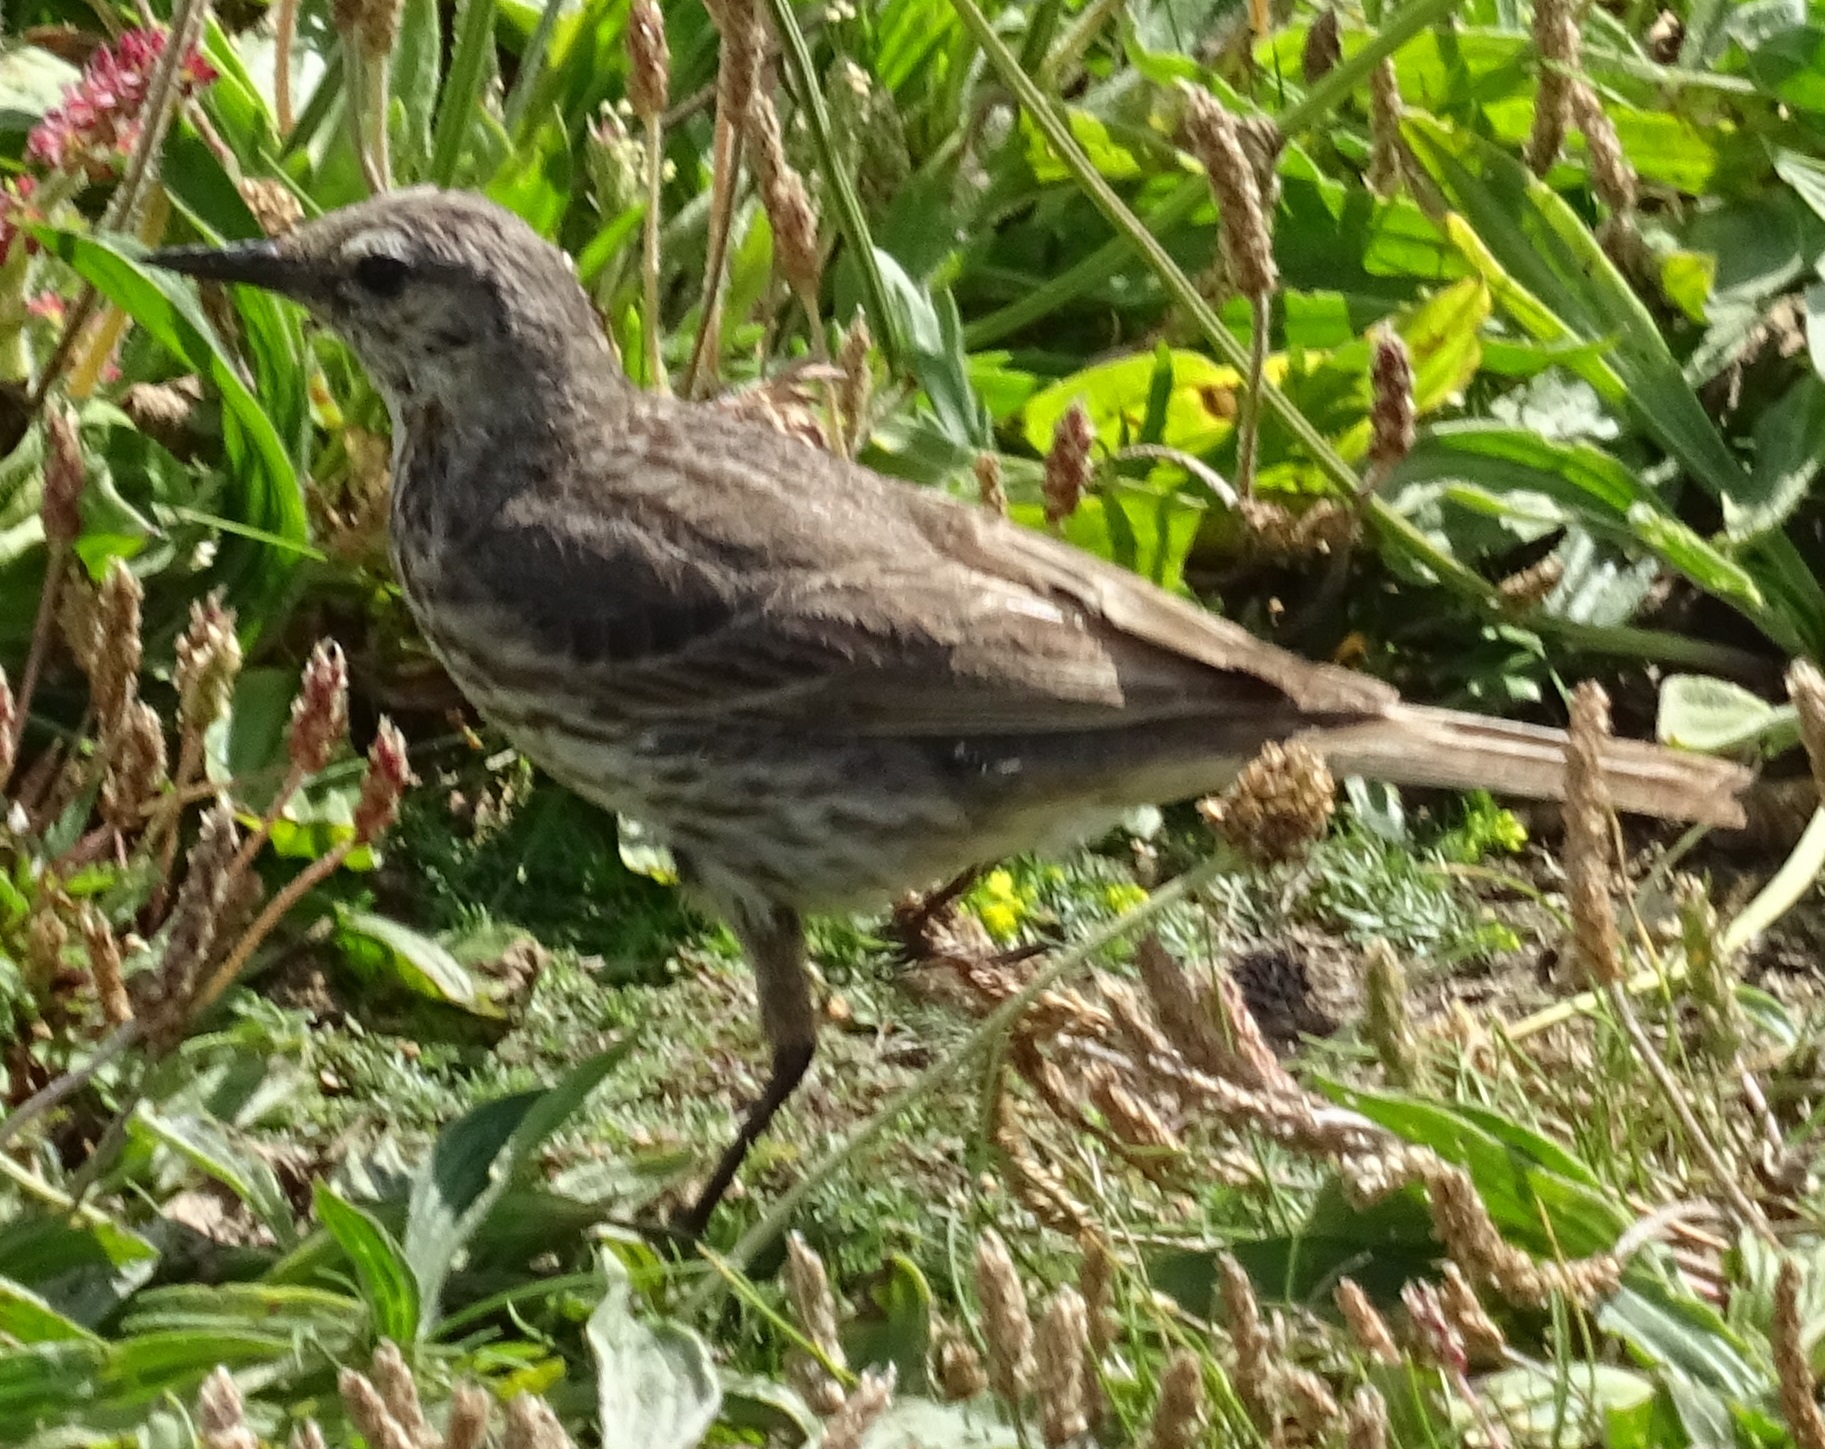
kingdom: Animalia
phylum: Chordata
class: Aves
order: Passeriformes
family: Motacillidae
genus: Anthus
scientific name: Anthus petrosus
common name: Eurasian rock pipit
